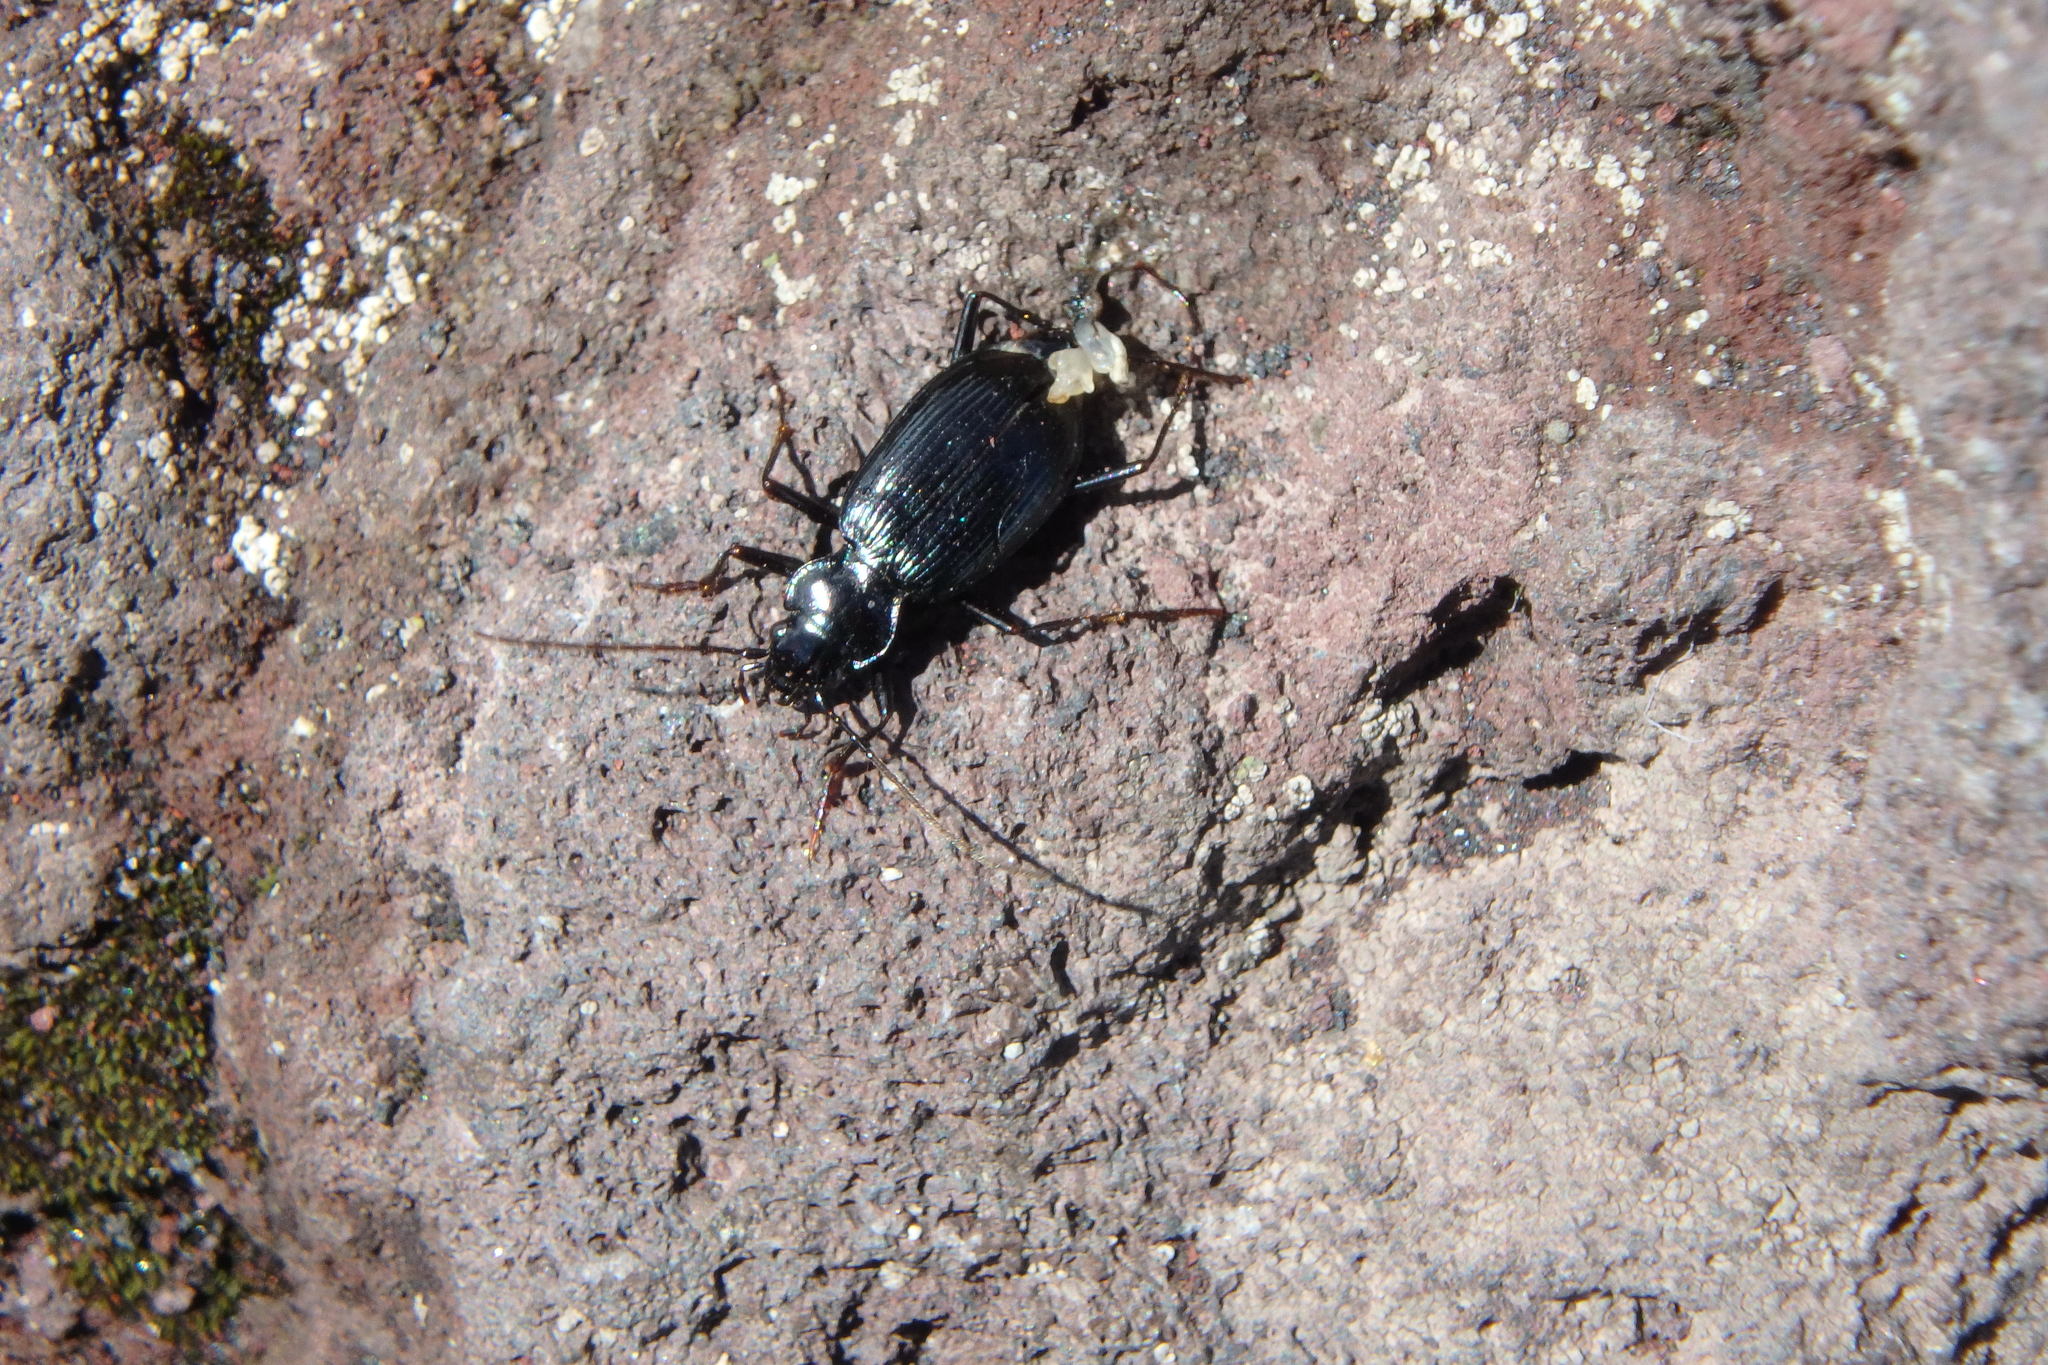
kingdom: Animalia
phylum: Arthropoda
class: Insecta
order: Coleoptera
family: Carabidae
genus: Nebria
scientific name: Nebria ochotica
